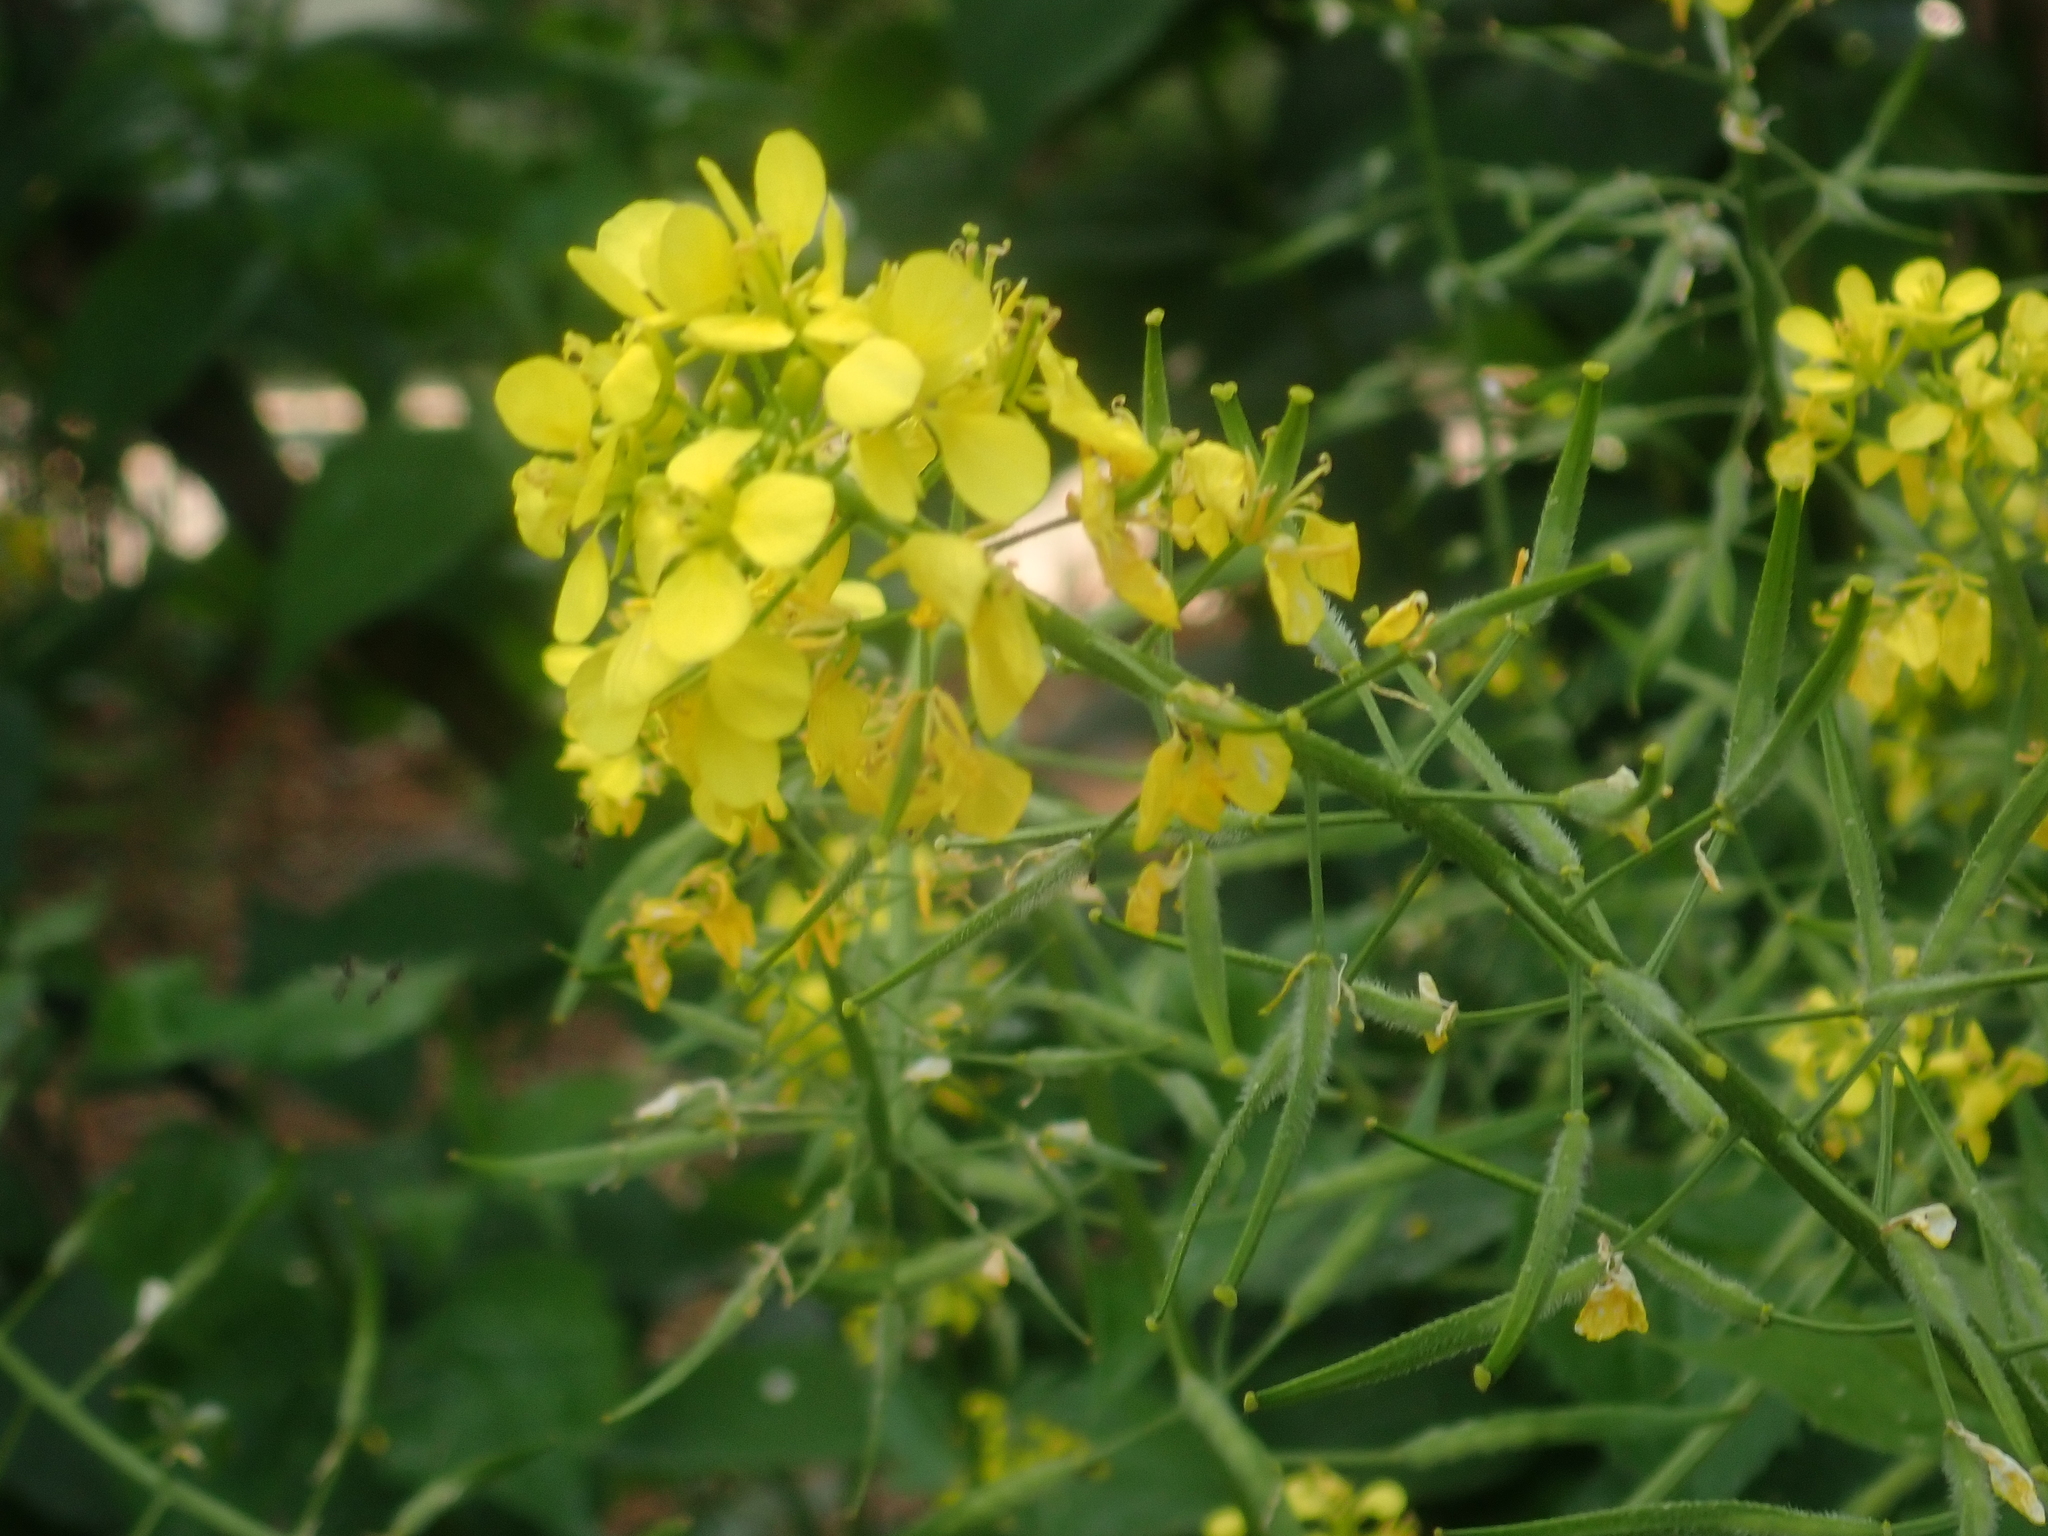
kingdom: Plantae
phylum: Tracheophyta
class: Magnoliopsida
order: Brassicales
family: Brassicaceae
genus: Sinapis
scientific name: Sinapis alba
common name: White mustard
